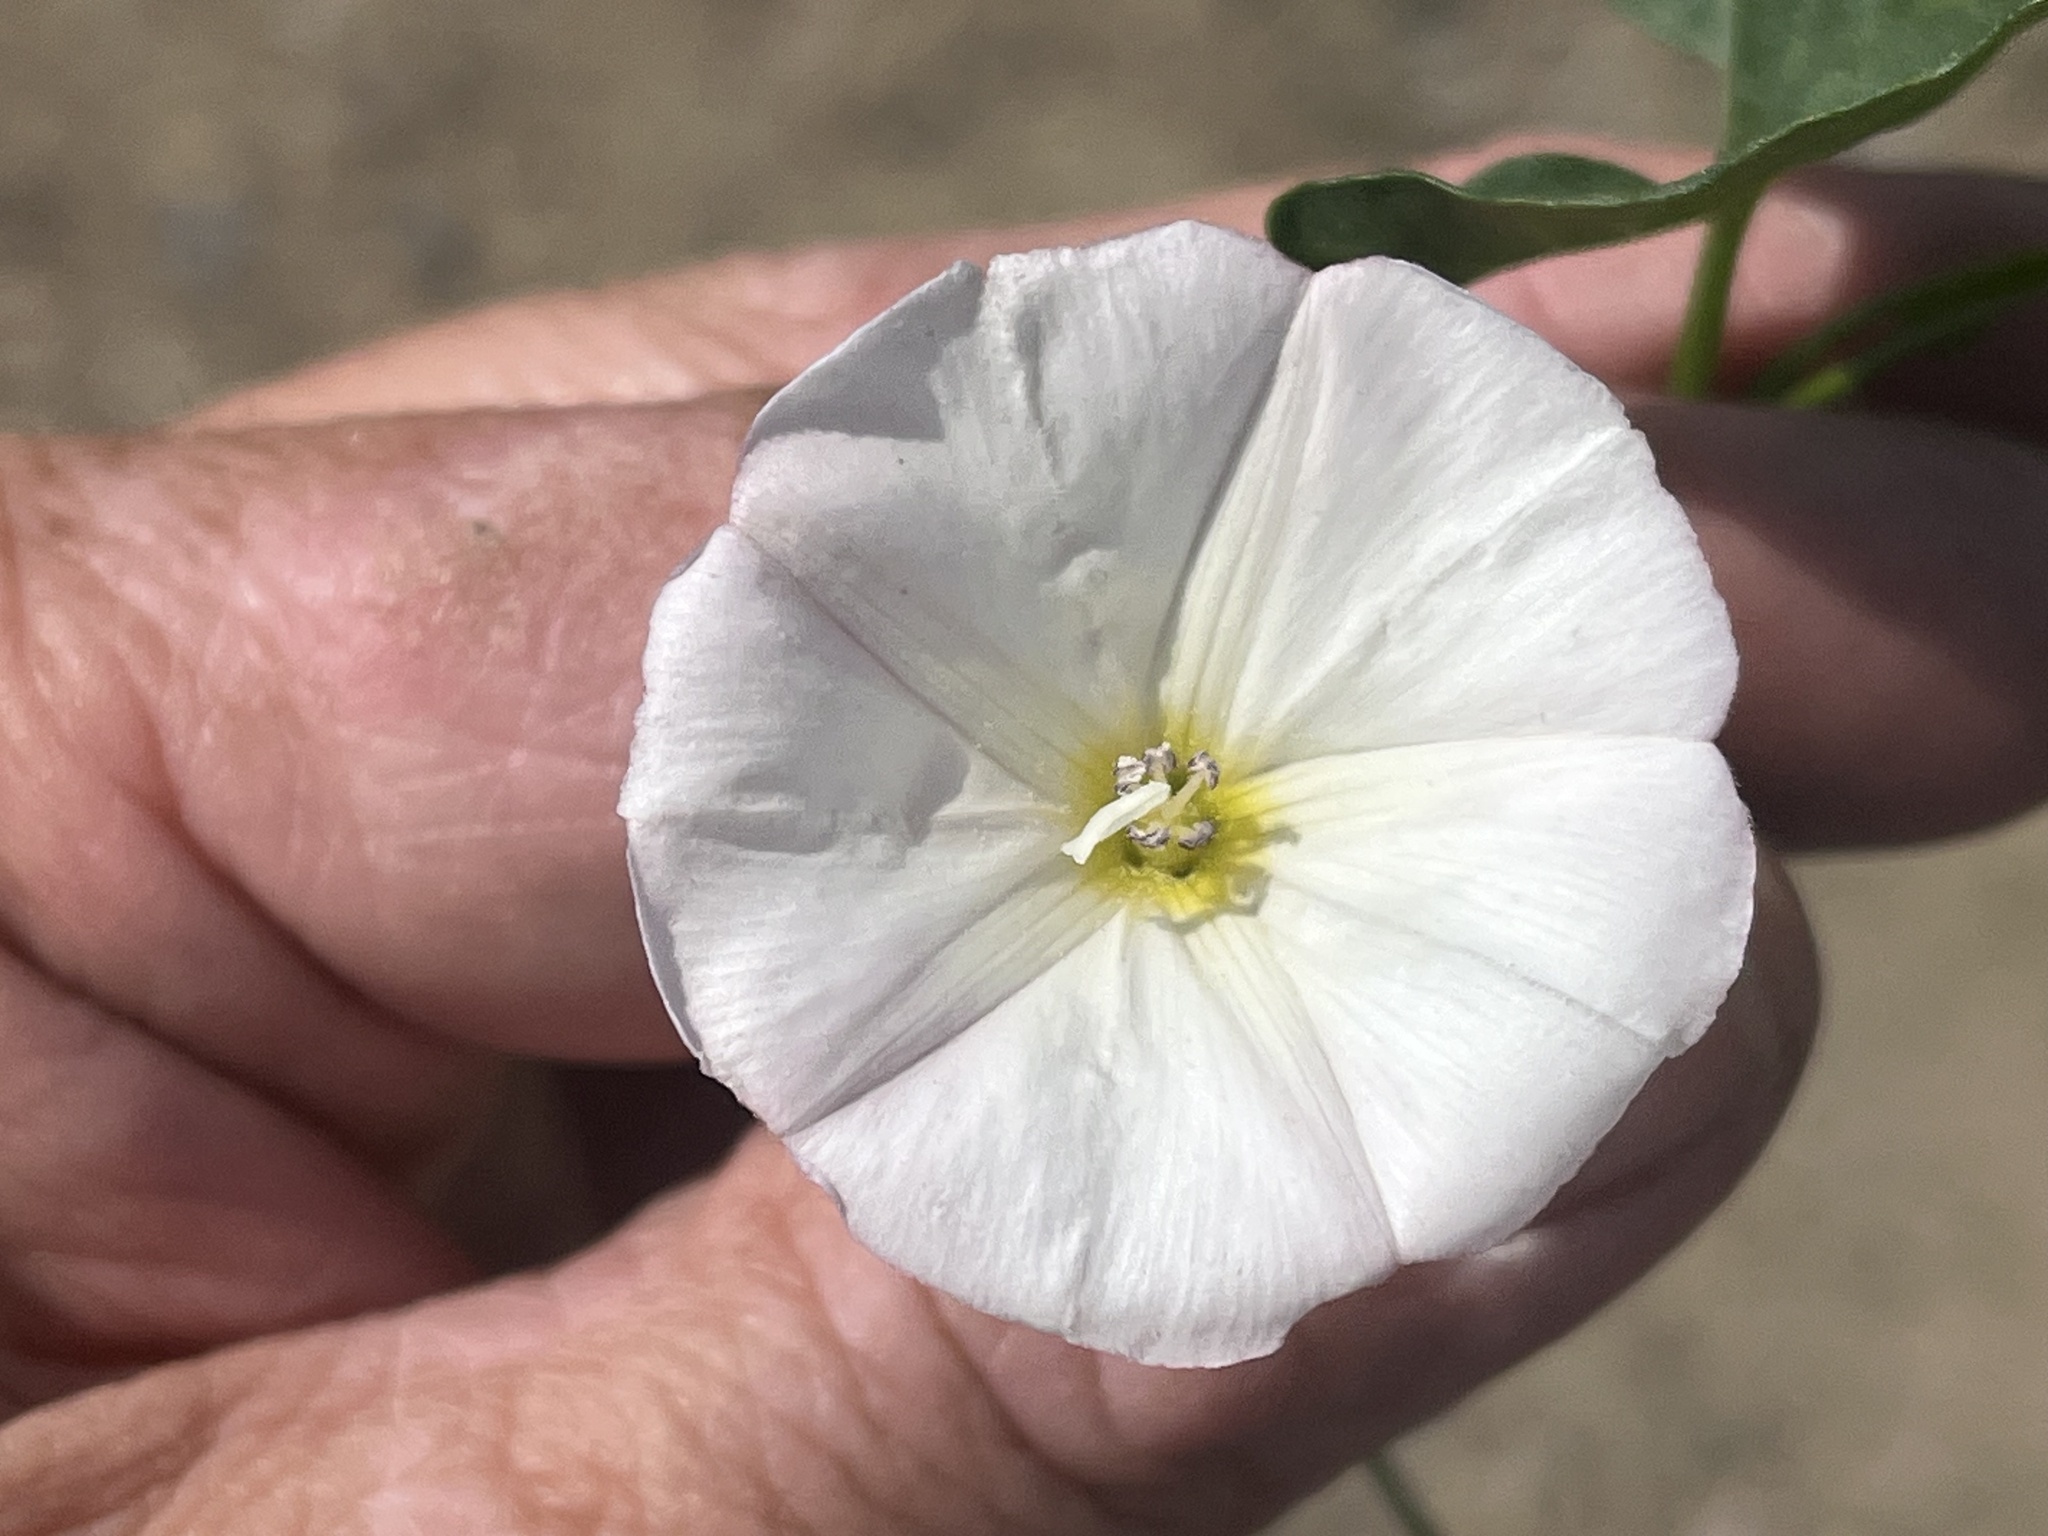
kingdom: Plantae
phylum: Tracheophyta
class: Magnoliopsida
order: Solanales
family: Convolvulaceae
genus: Convolvulus
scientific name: Convolvulus arvensis
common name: Field bindweed
